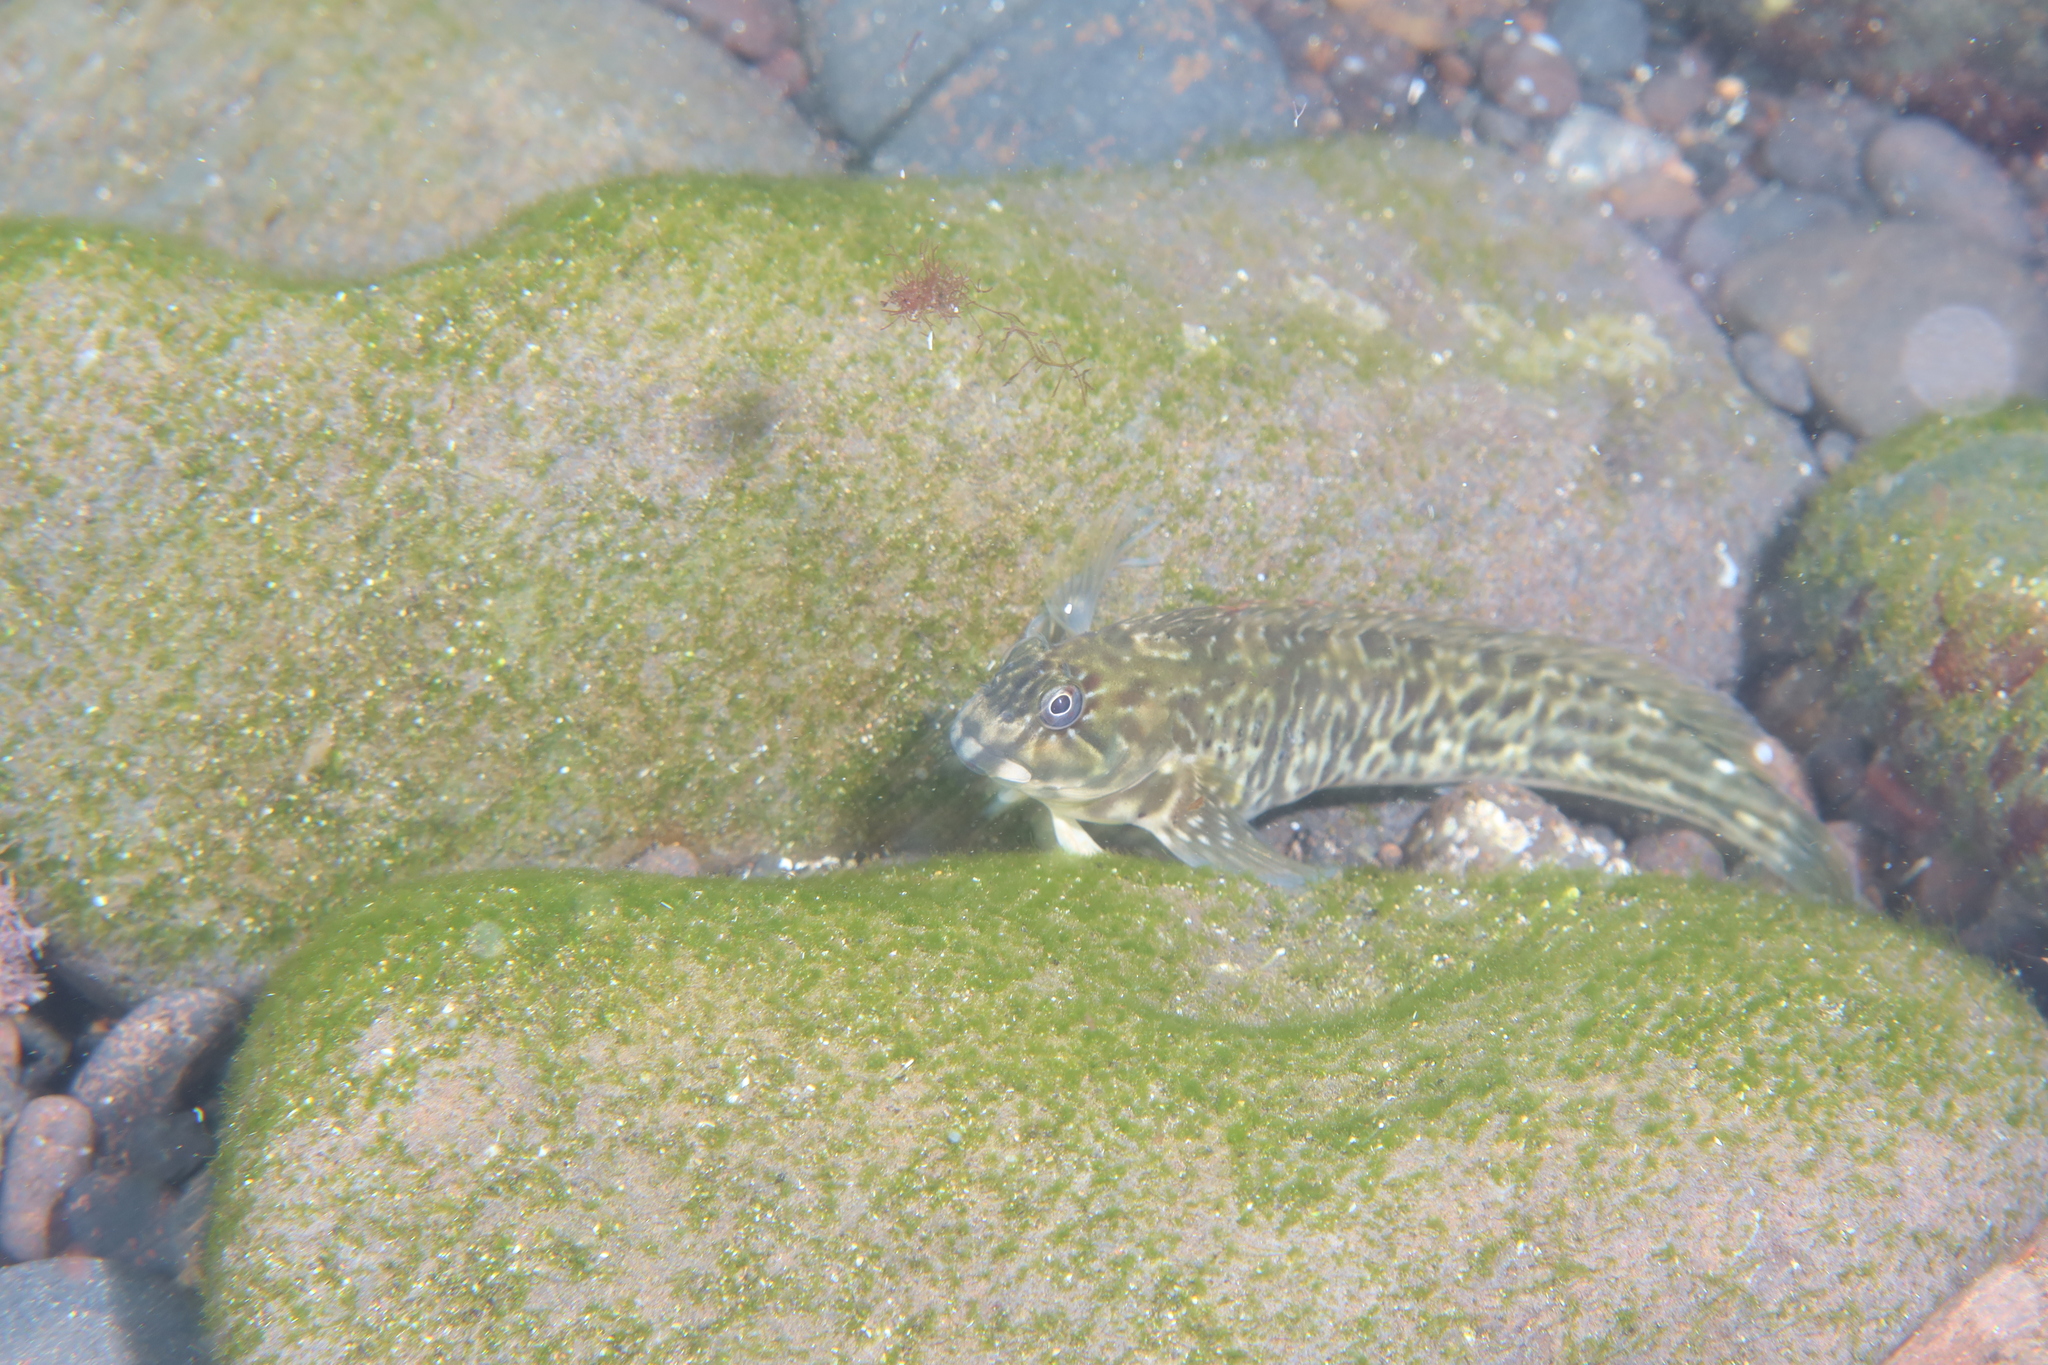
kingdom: Animalia
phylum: Chordata
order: Perciformes
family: Blenniidae
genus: Parablennius
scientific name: Parablennius parvicornis
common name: Rock-pool blenny
